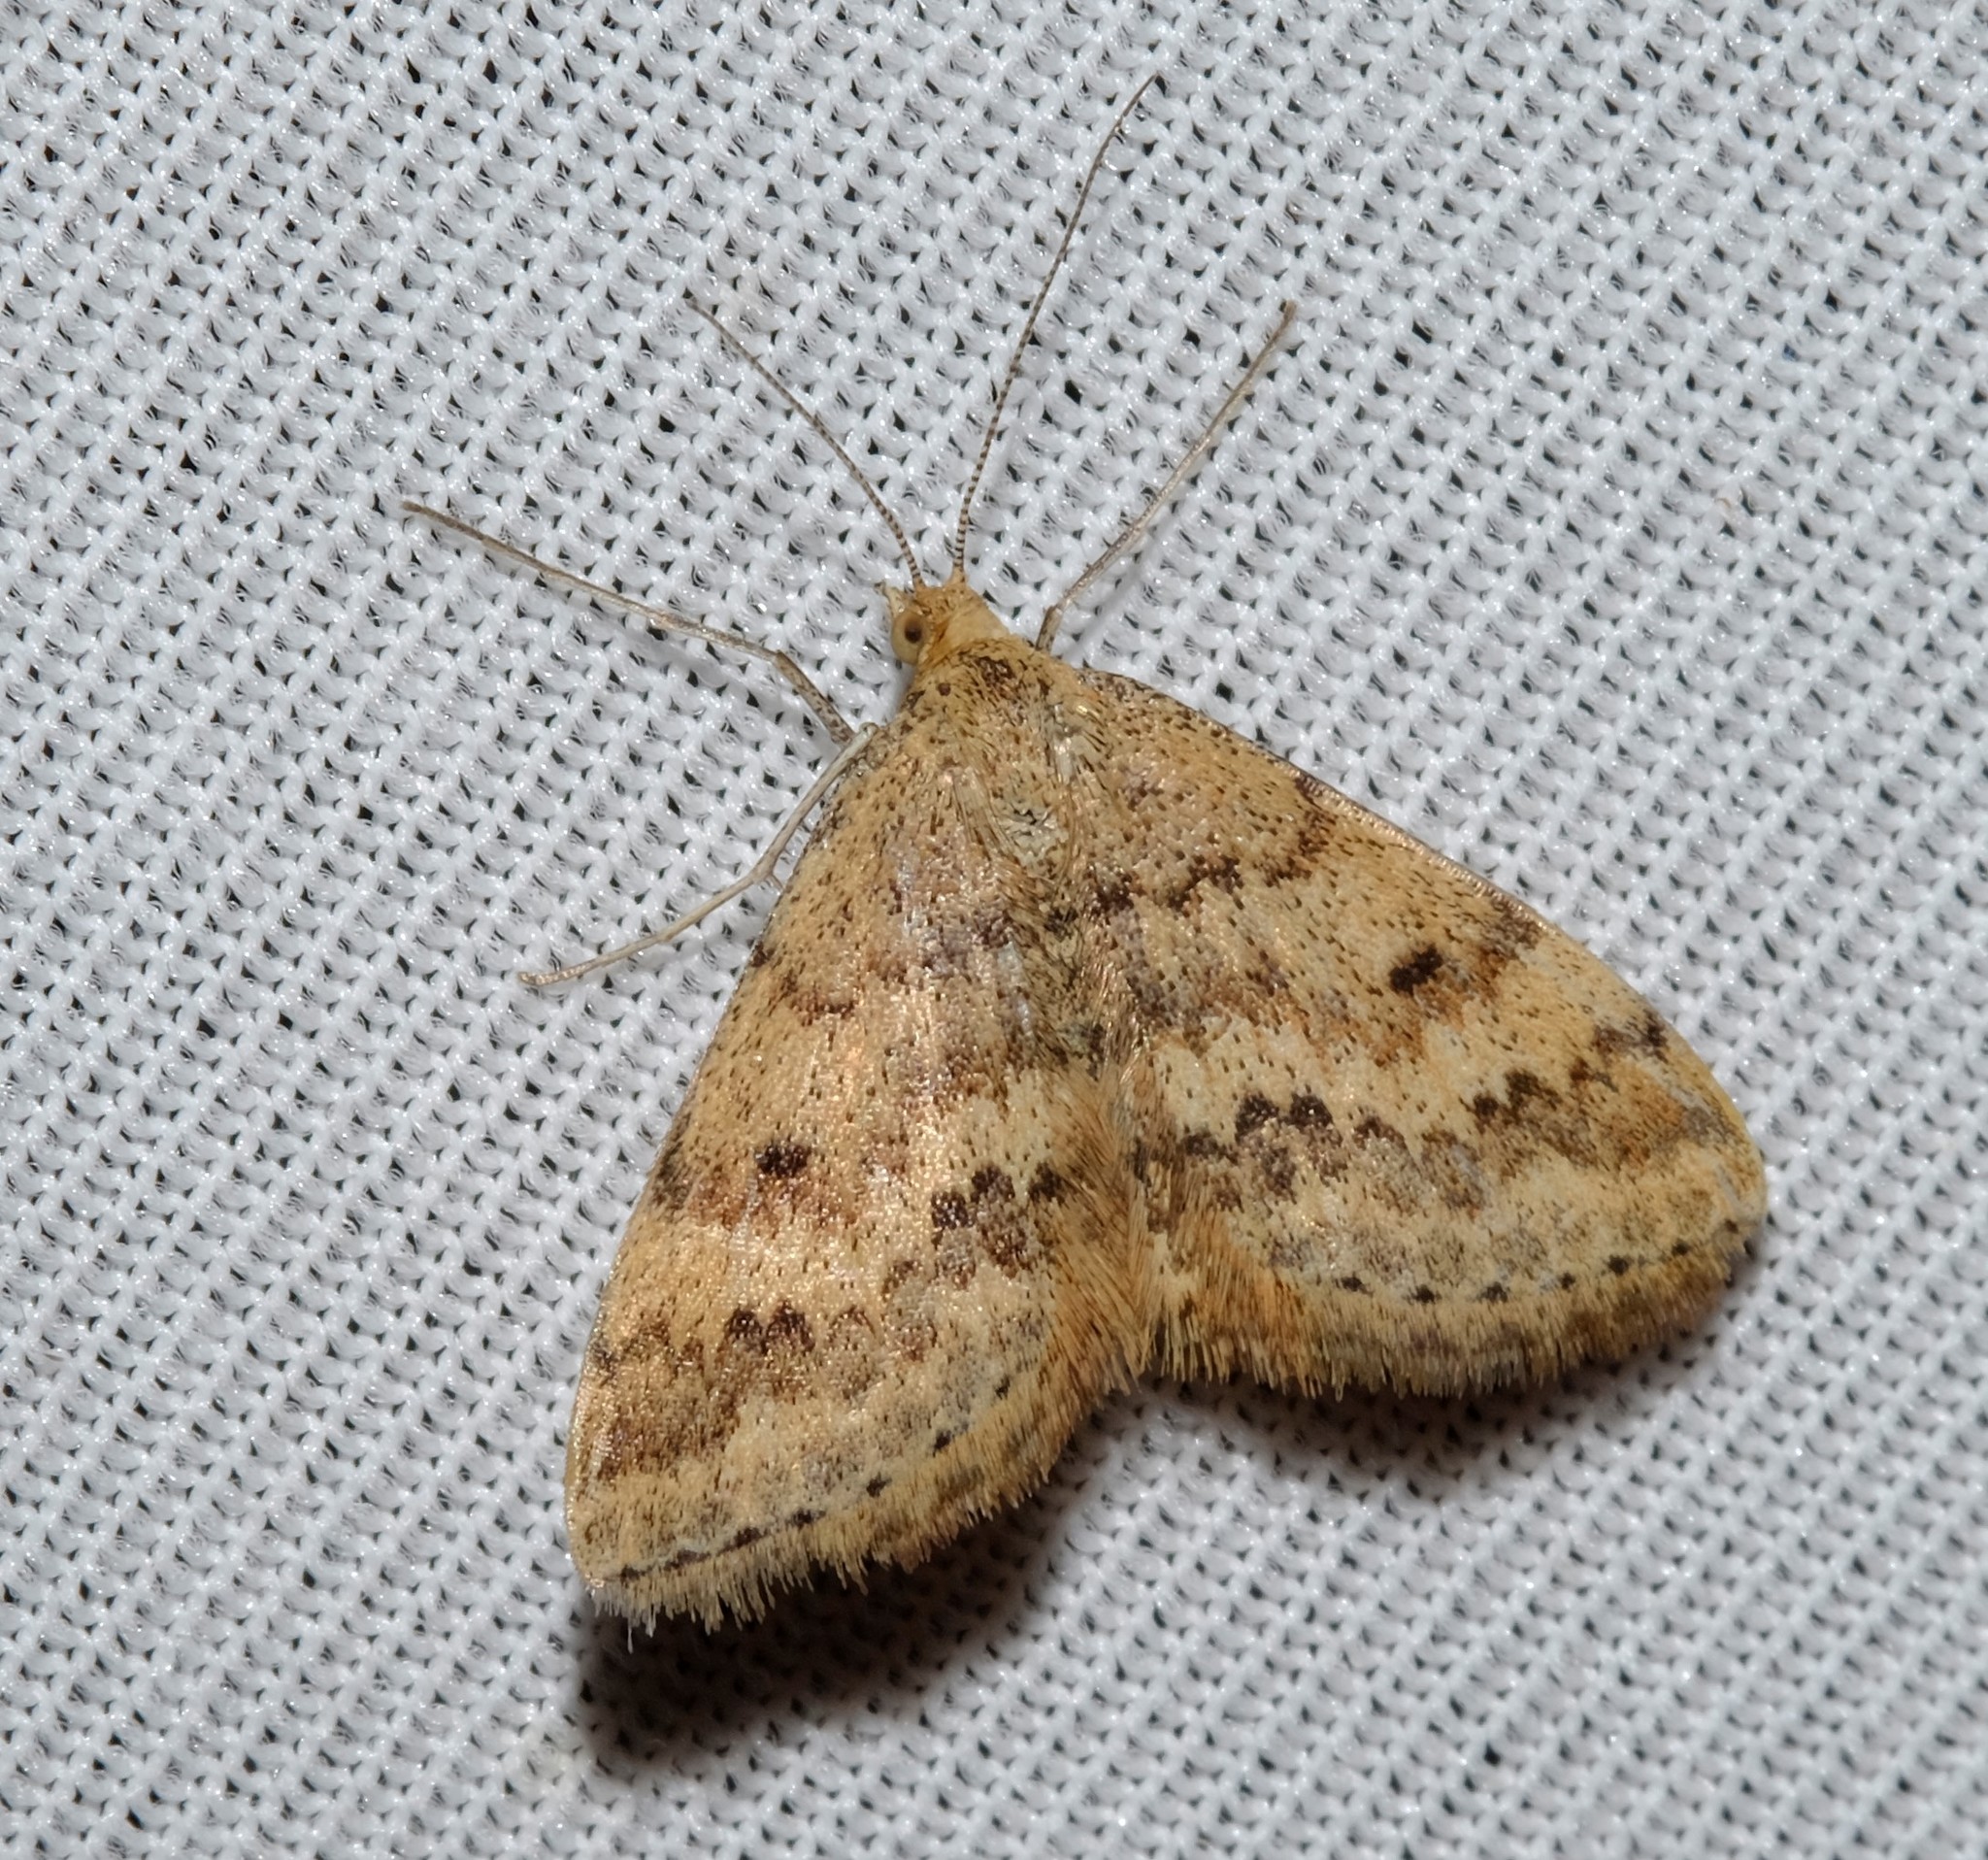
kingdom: Animalia
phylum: Arthropoda
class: Insecta
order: Lepidoptera
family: Geometridae
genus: Scopula
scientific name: Scopula rubraria
